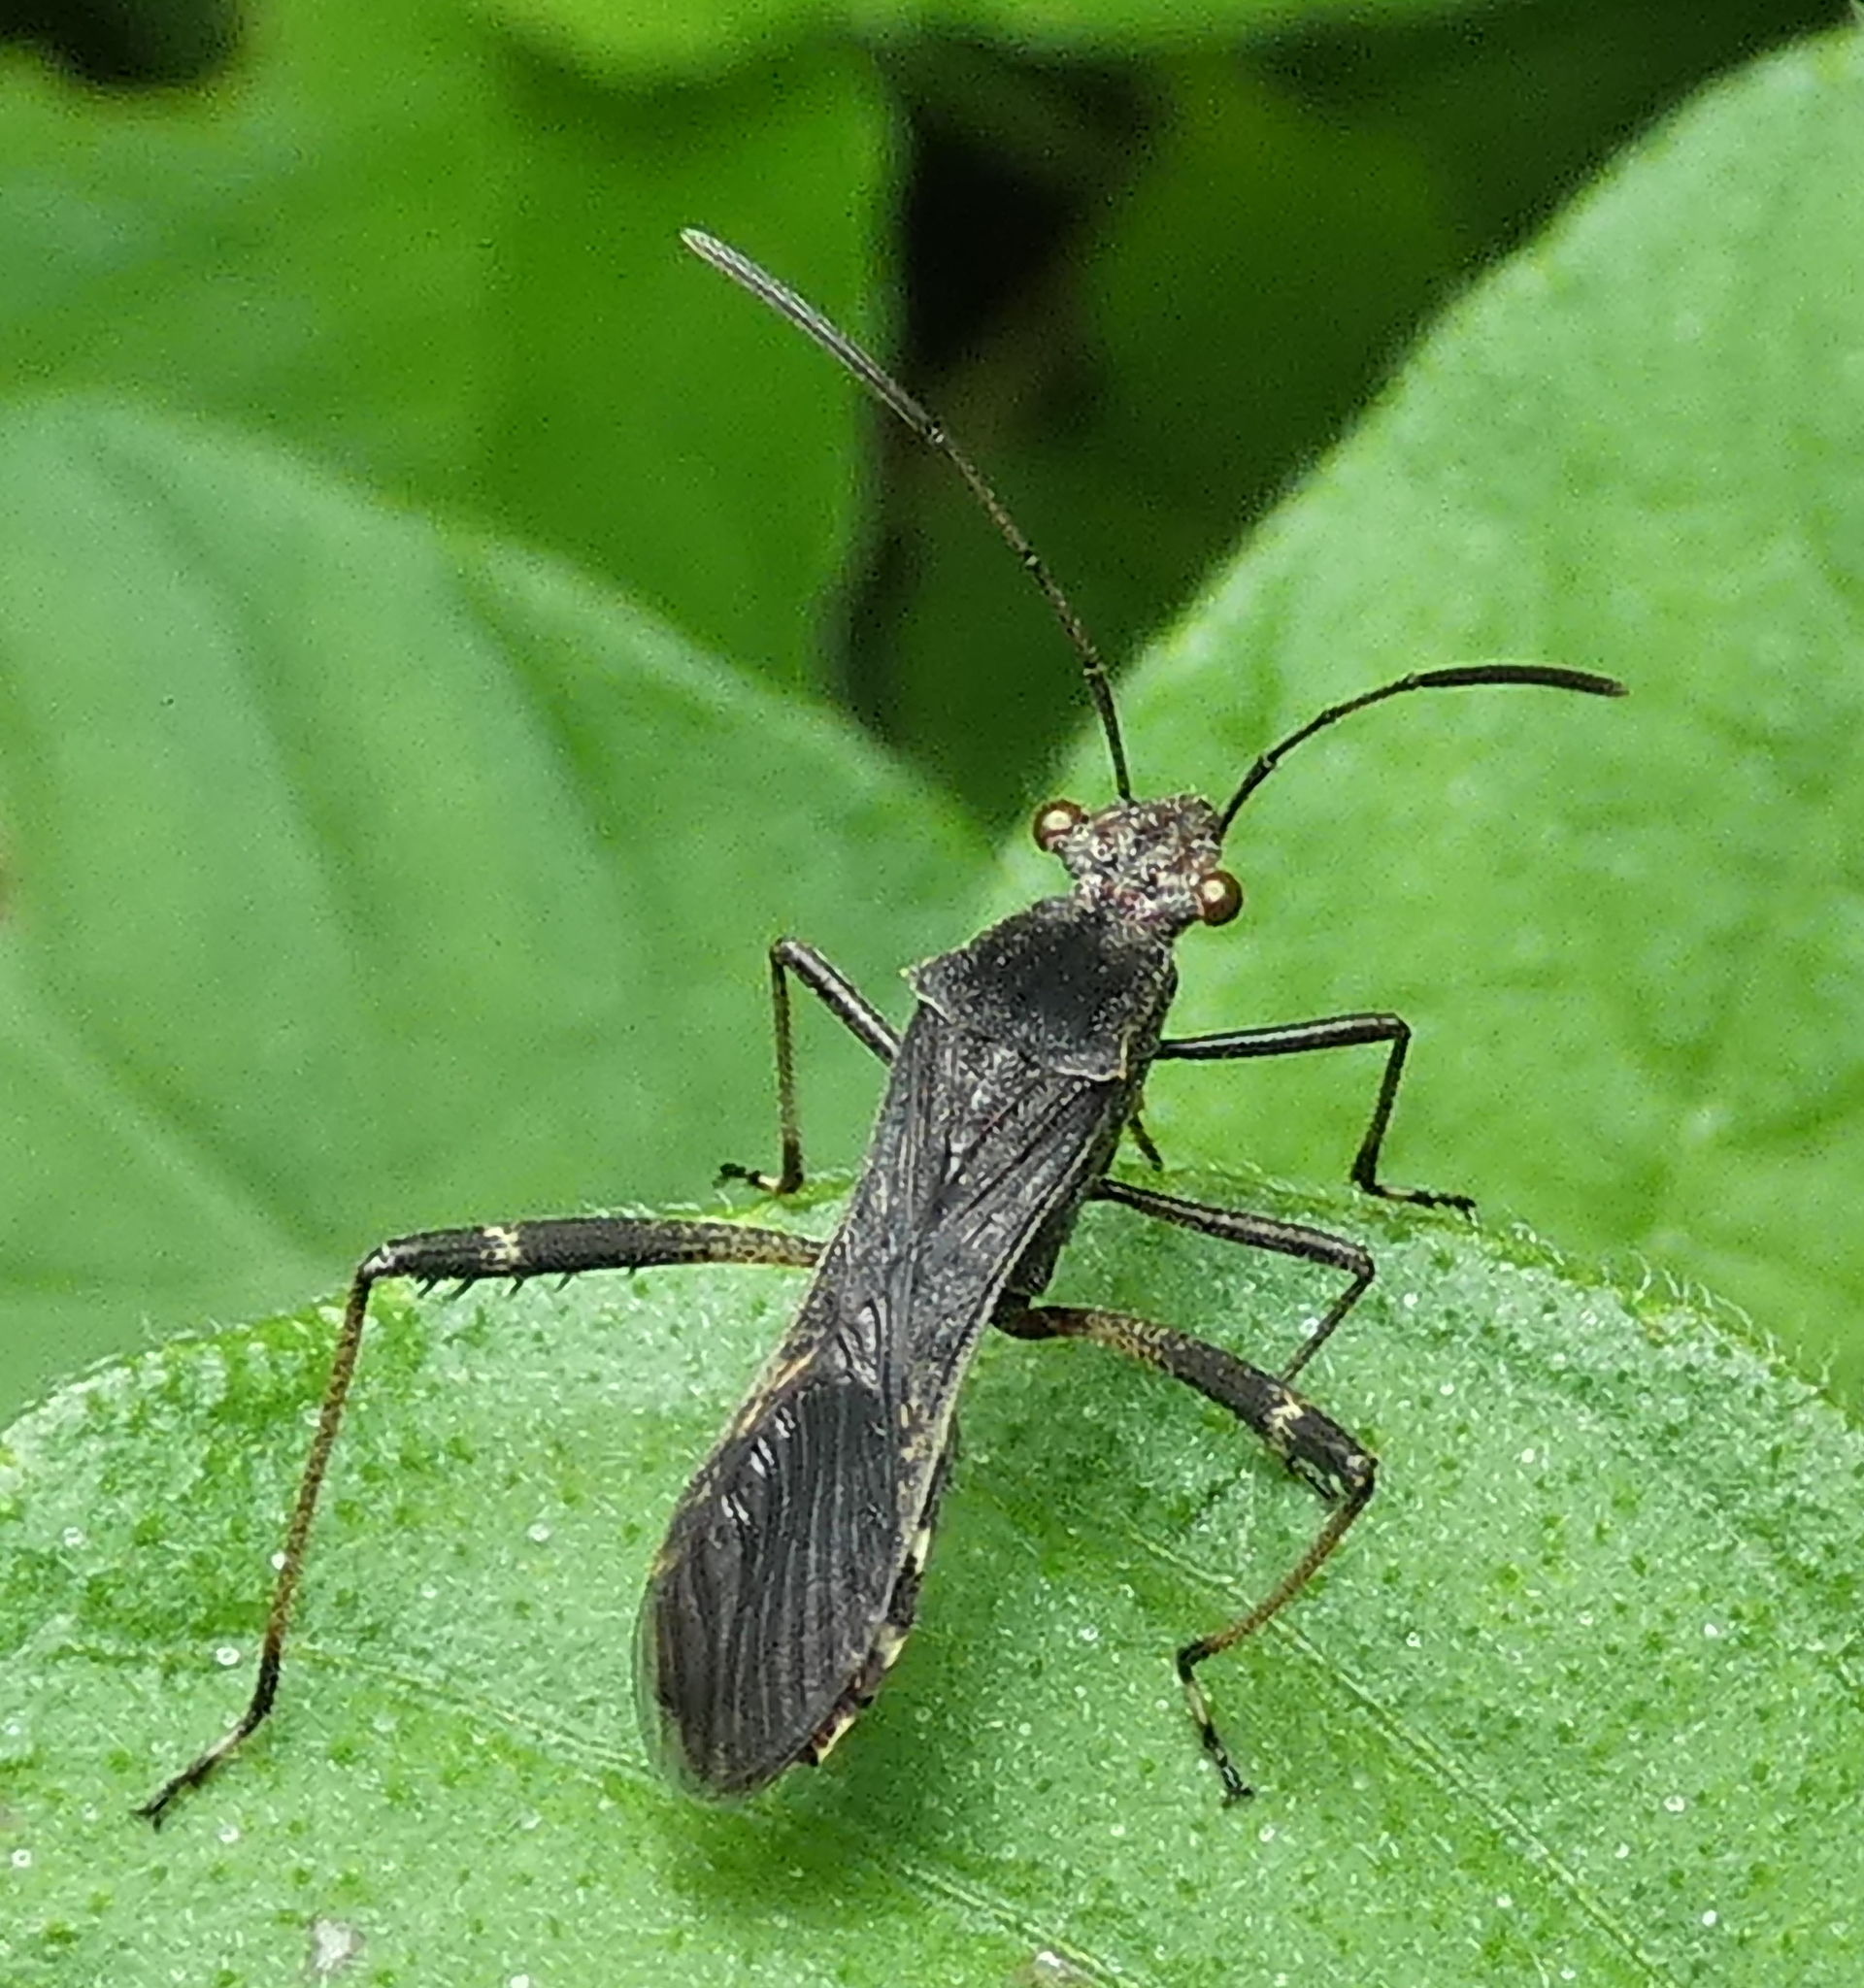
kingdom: Animalia
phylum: Arthropoda
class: Insecta
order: Hemiptera
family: Alydidae
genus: Neomegalotomus
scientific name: Neomegalotomus parvus
